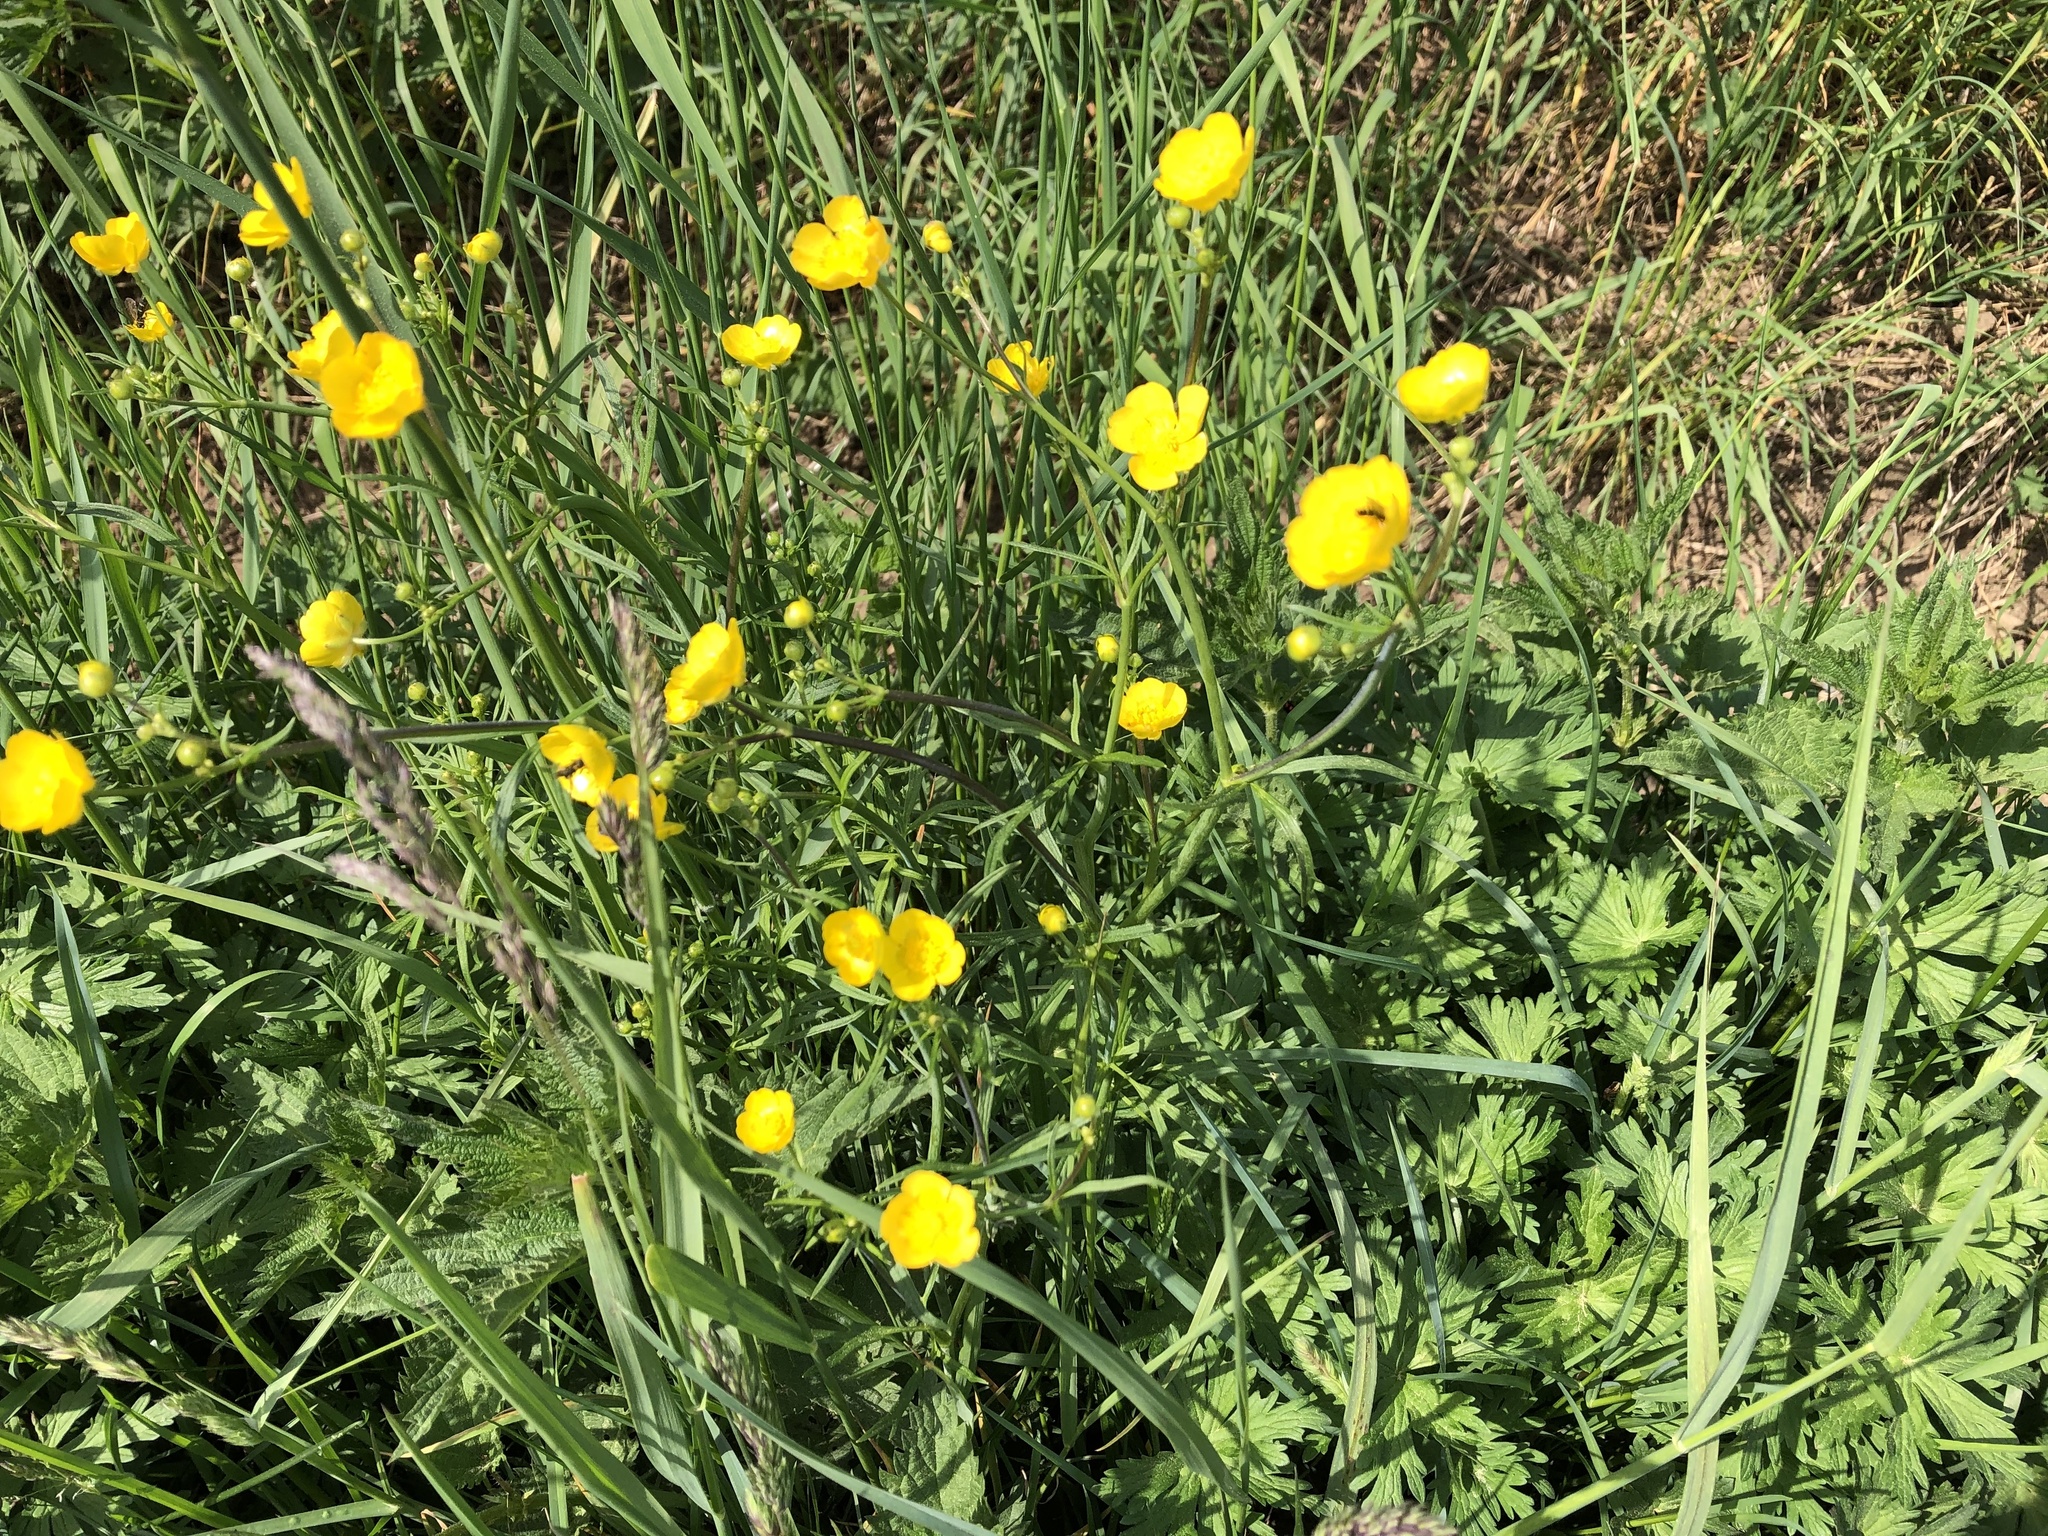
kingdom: Plantae
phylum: Tracheophyta
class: Magnoliopsida
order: Ranunculales
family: Ranunculaceae
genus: Ranunculus
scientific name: Ranunculus acris
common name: Meadow buttercup
